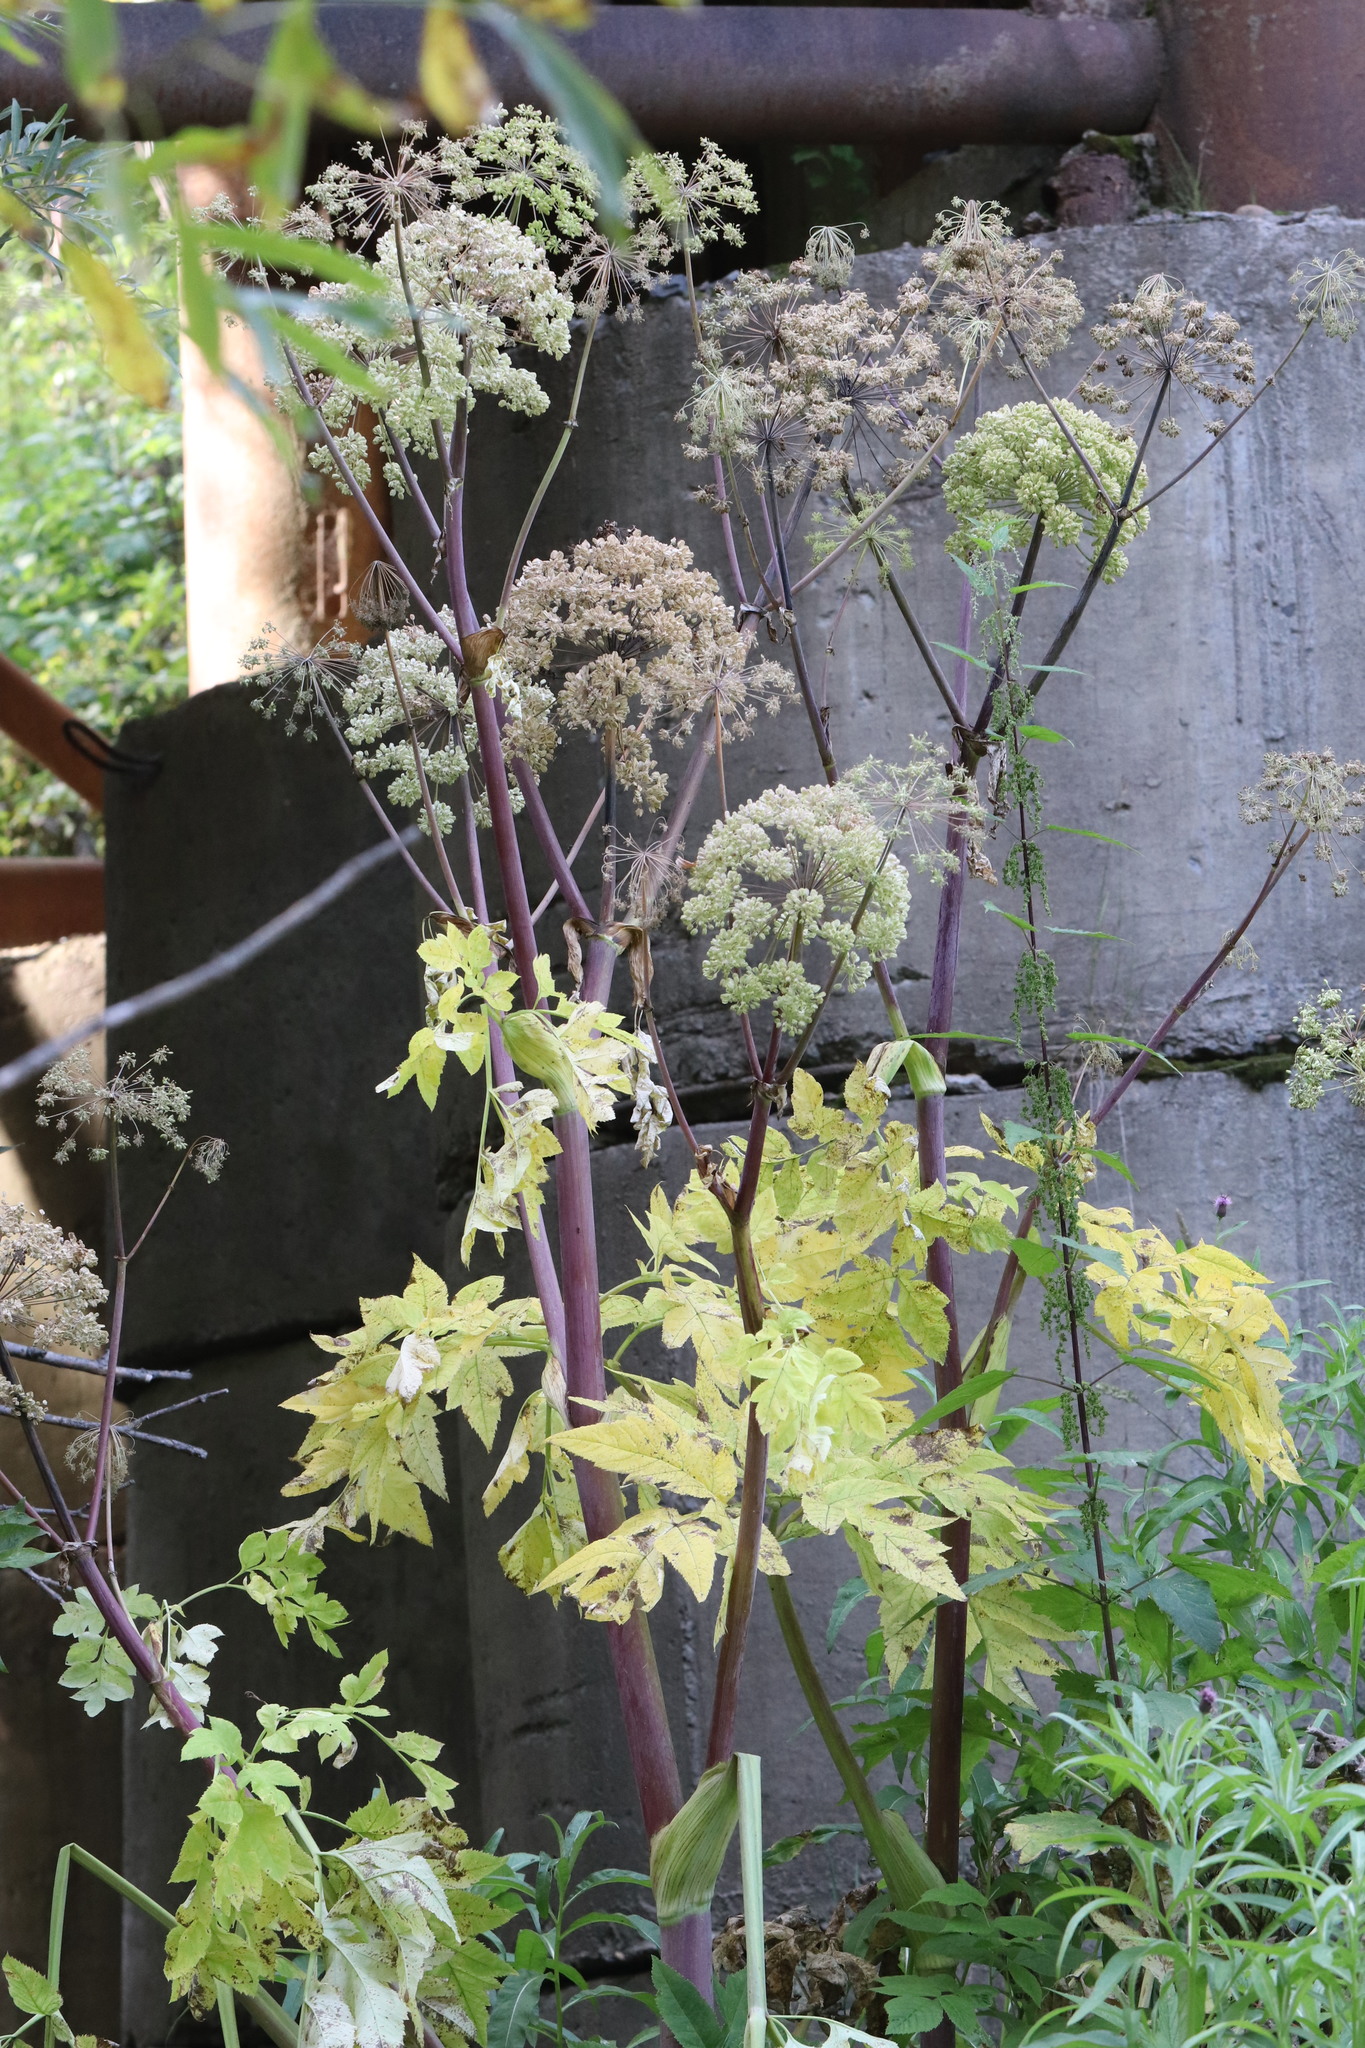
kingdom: Plantae
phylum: Tracheophyta
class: Magnoliopsida
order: Apiales
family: Apiaceae
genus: Angelica
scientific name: Angelica decurrens
